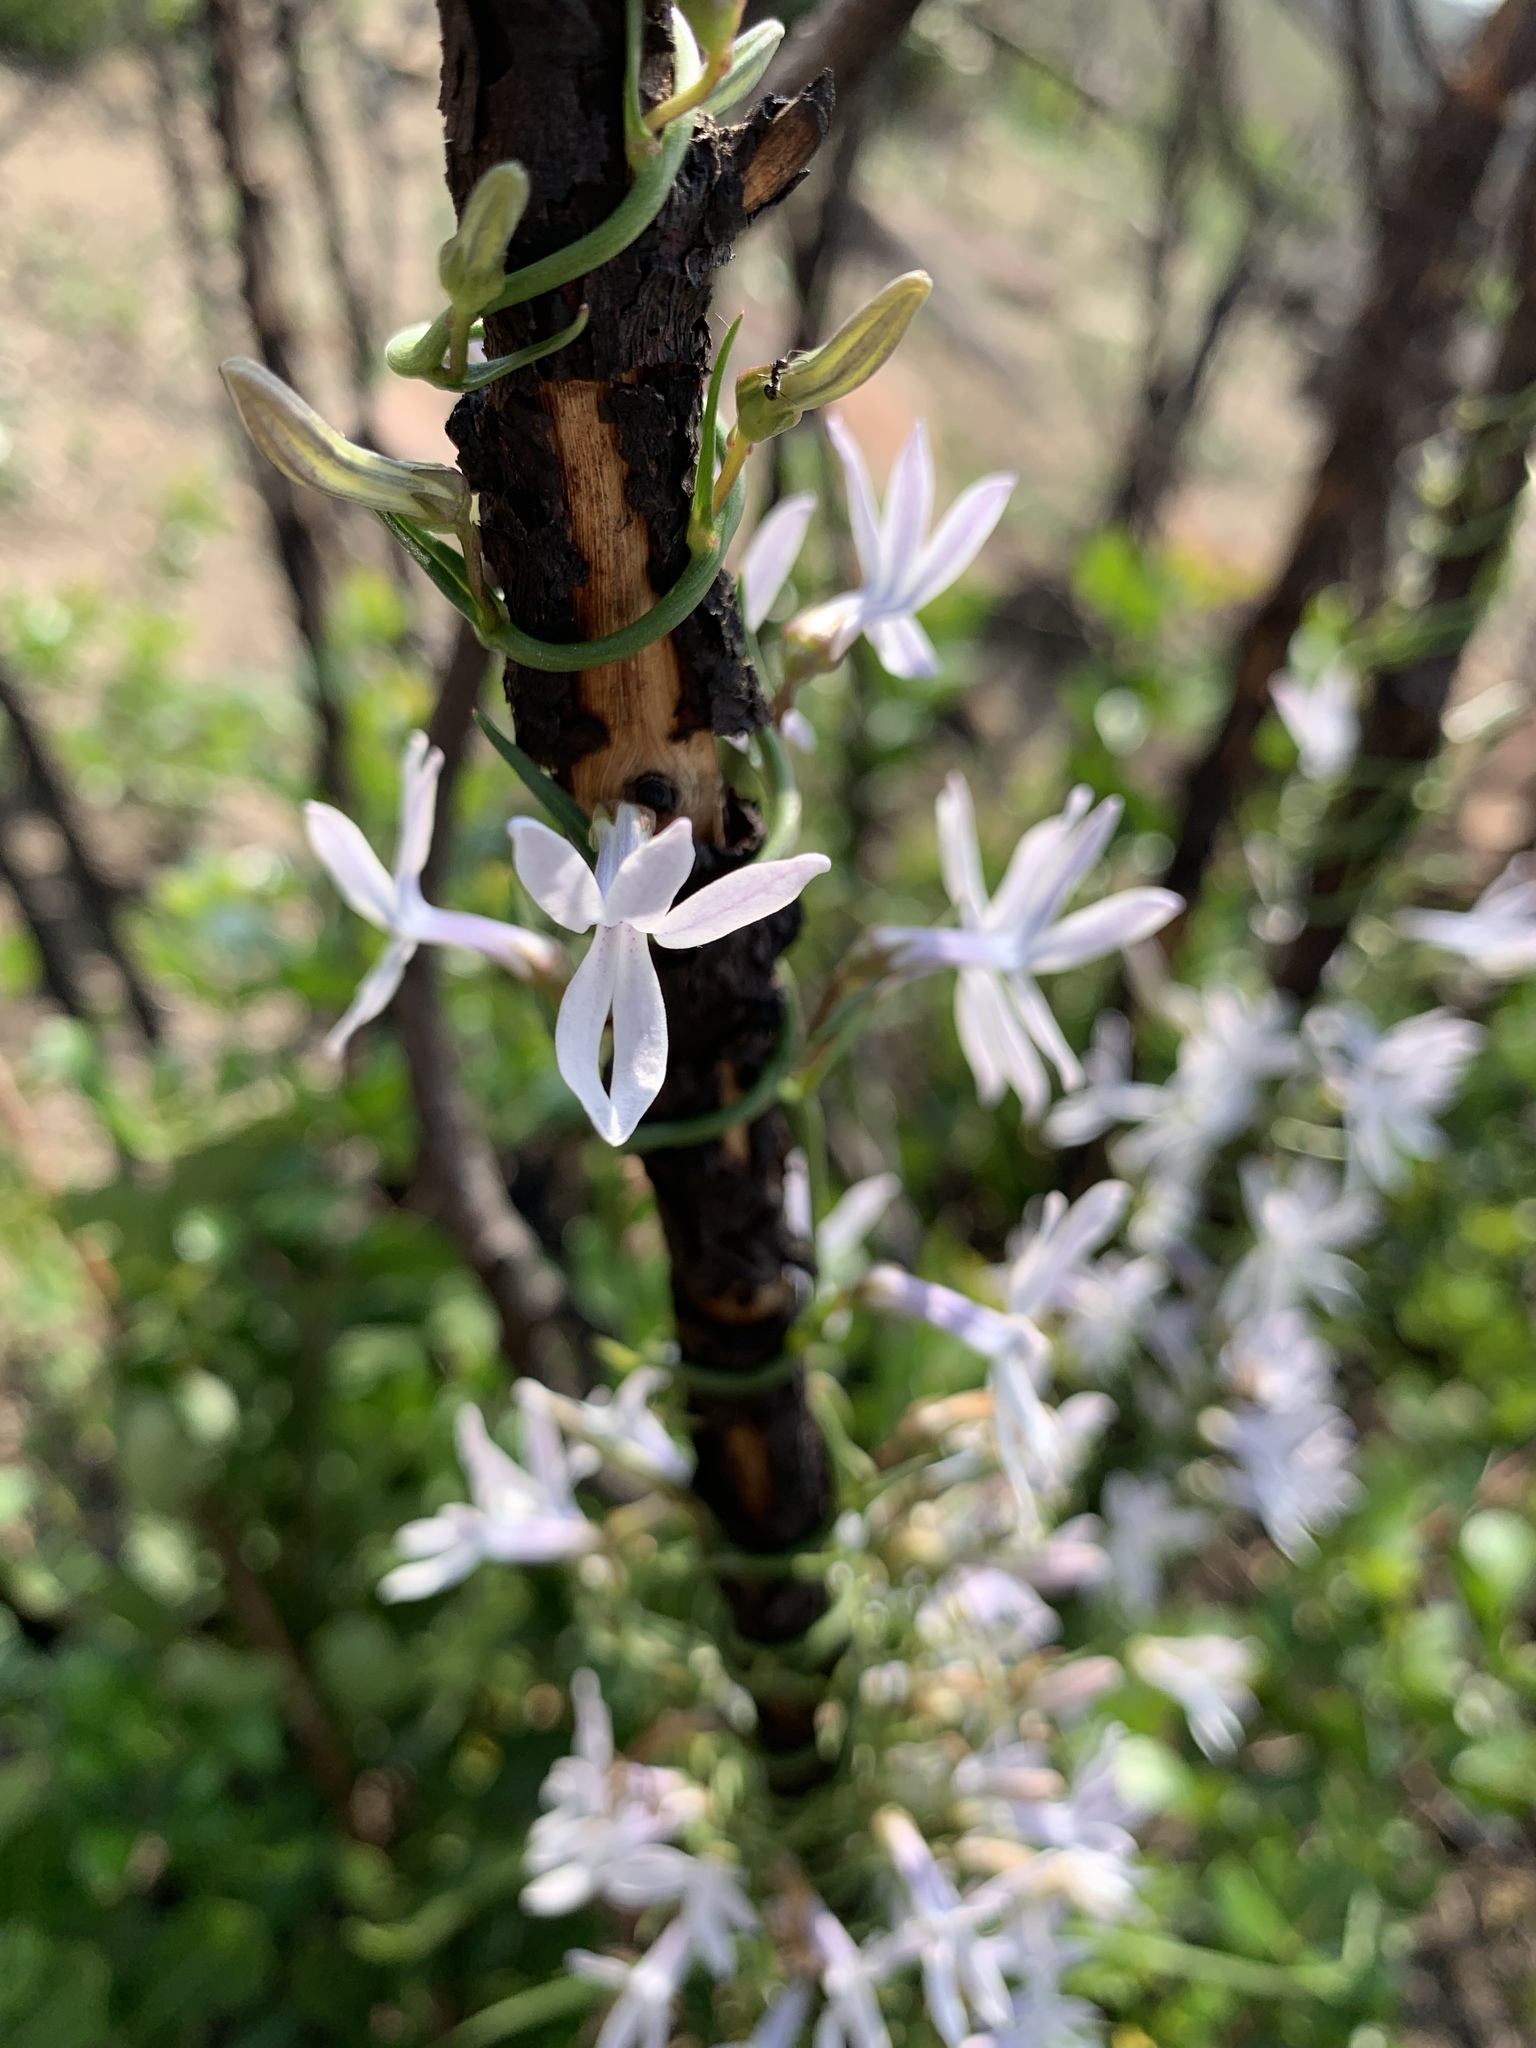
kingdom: Plantae
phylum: Tracheophyta
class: Magnoliopsida
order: Asterales
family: Campanulaceae
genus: Cyphia
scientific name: Cyphia volubilis
